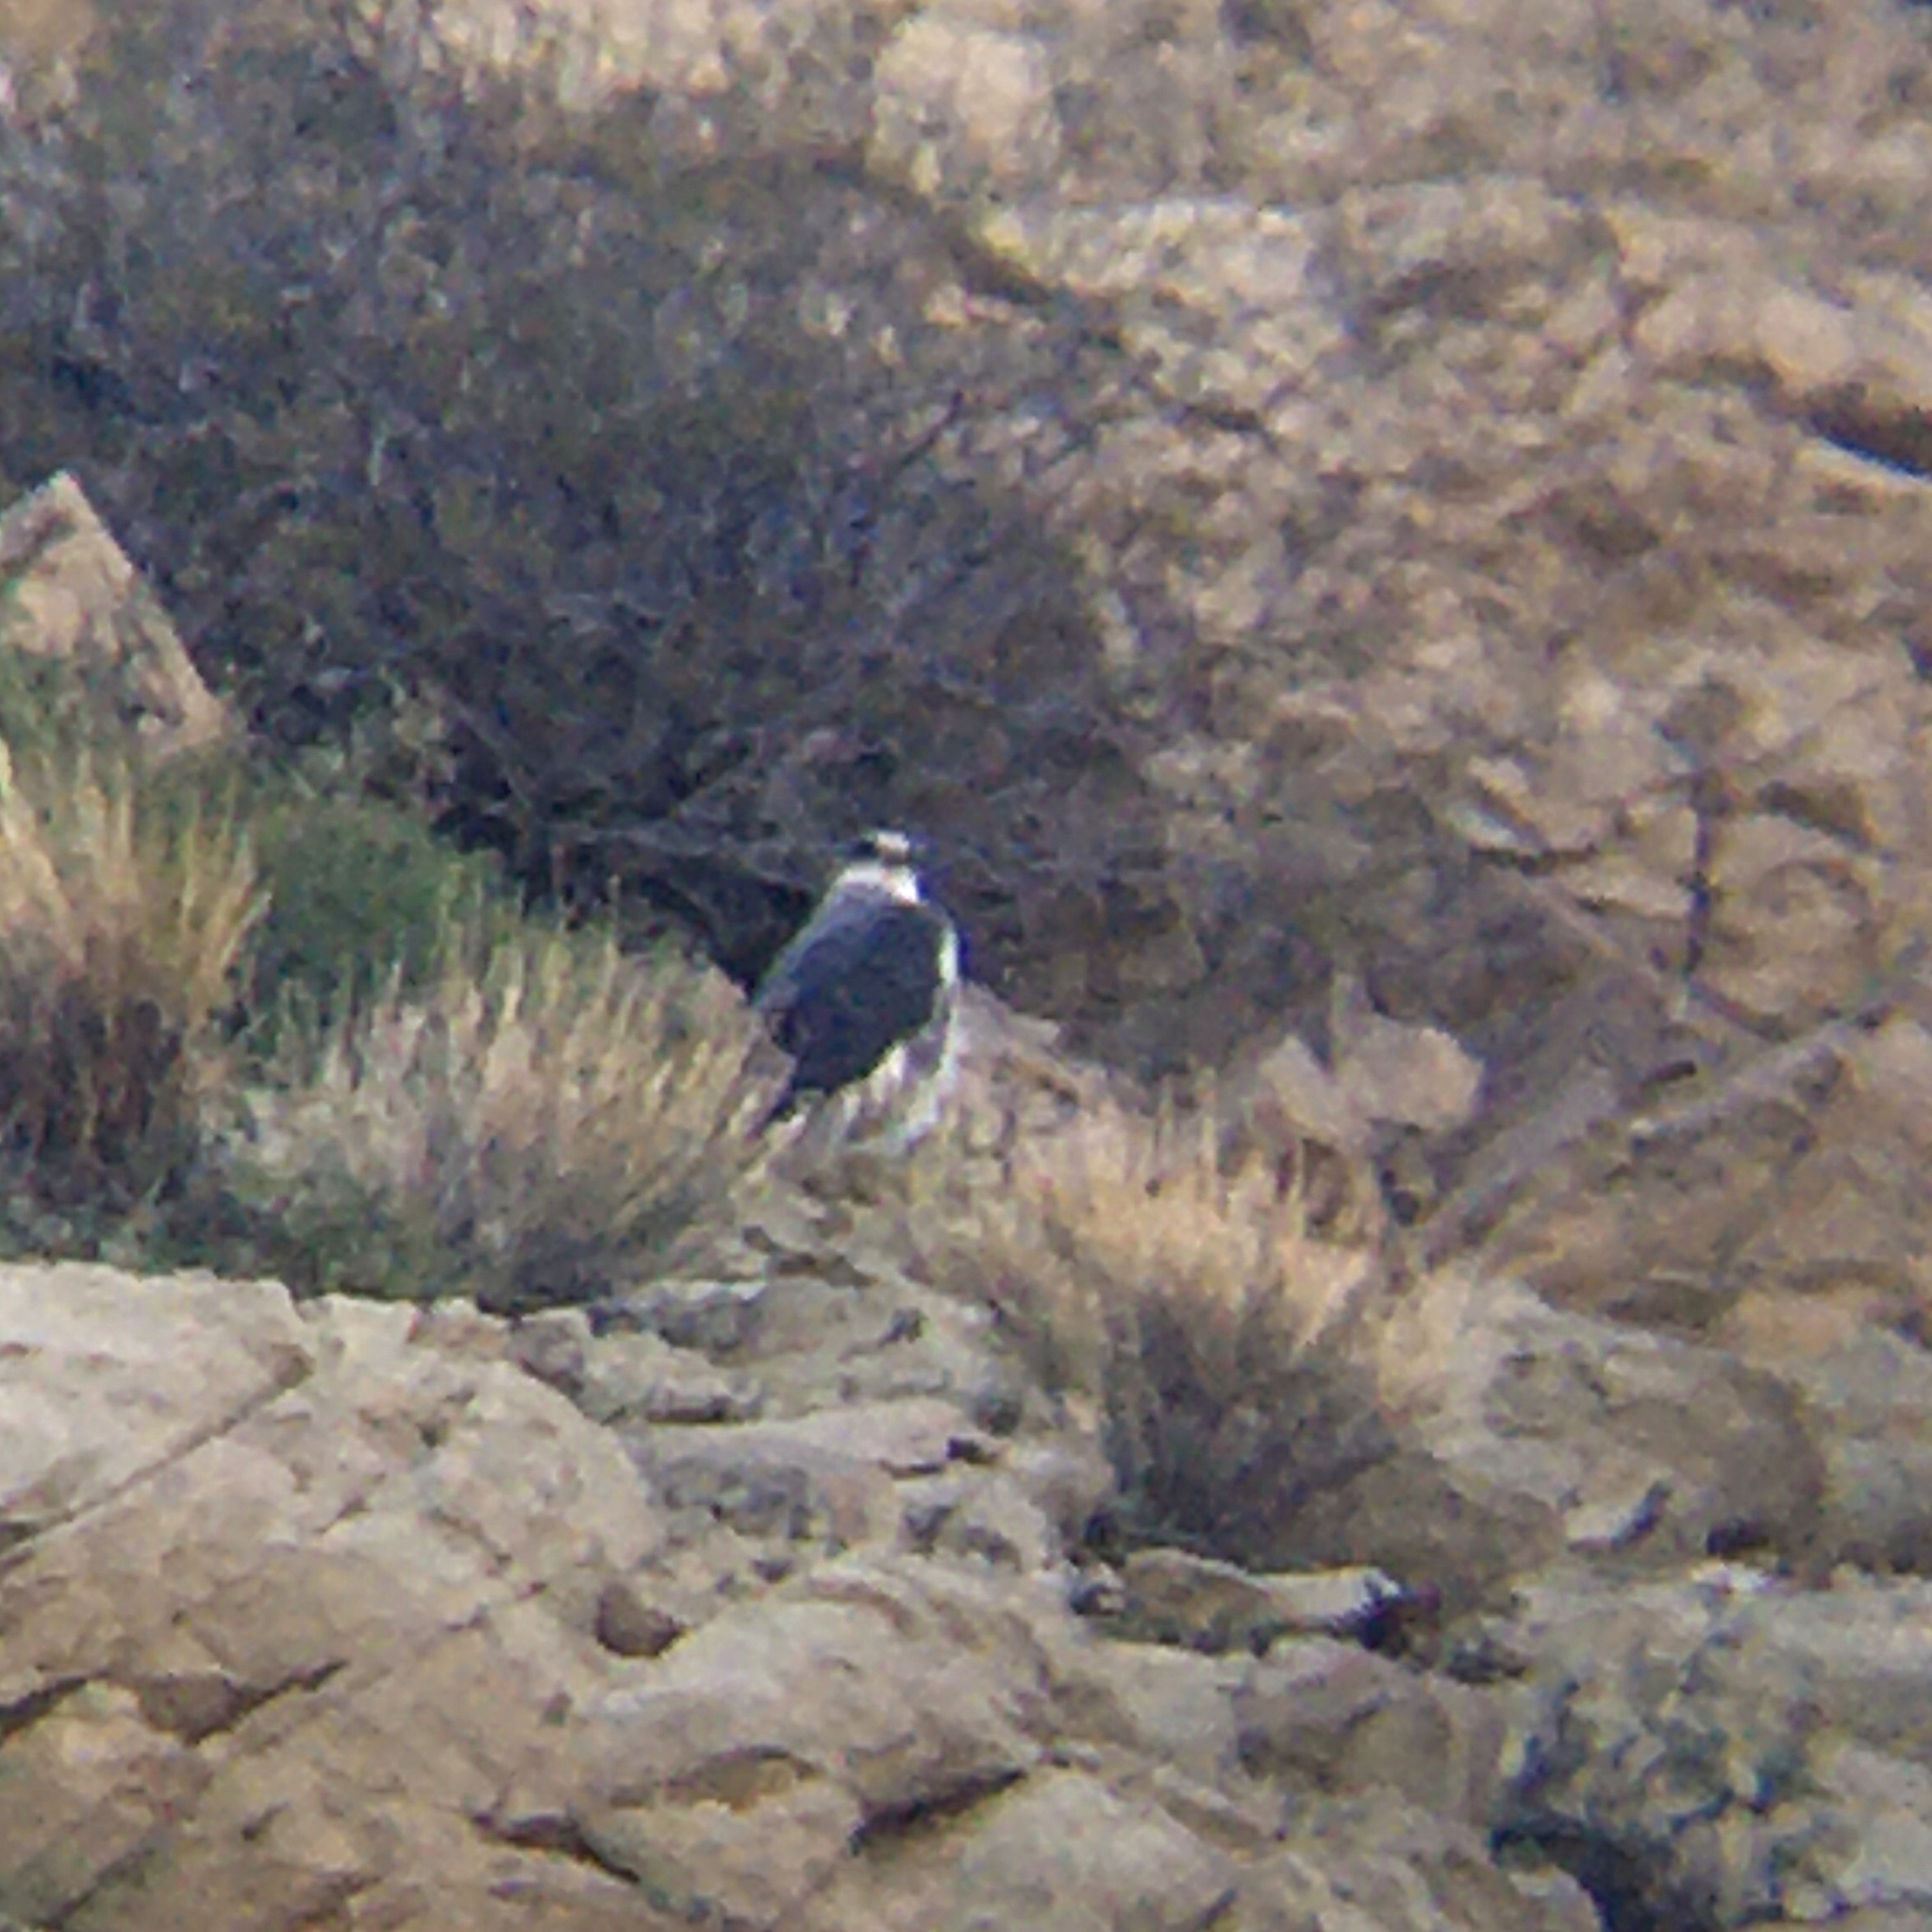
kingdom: Animalia
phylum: Chordata
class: Aves
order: Accipitriformes
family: Accipitridae
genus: Buteo
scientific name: Buteo polyosoma
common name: Variable hawk
